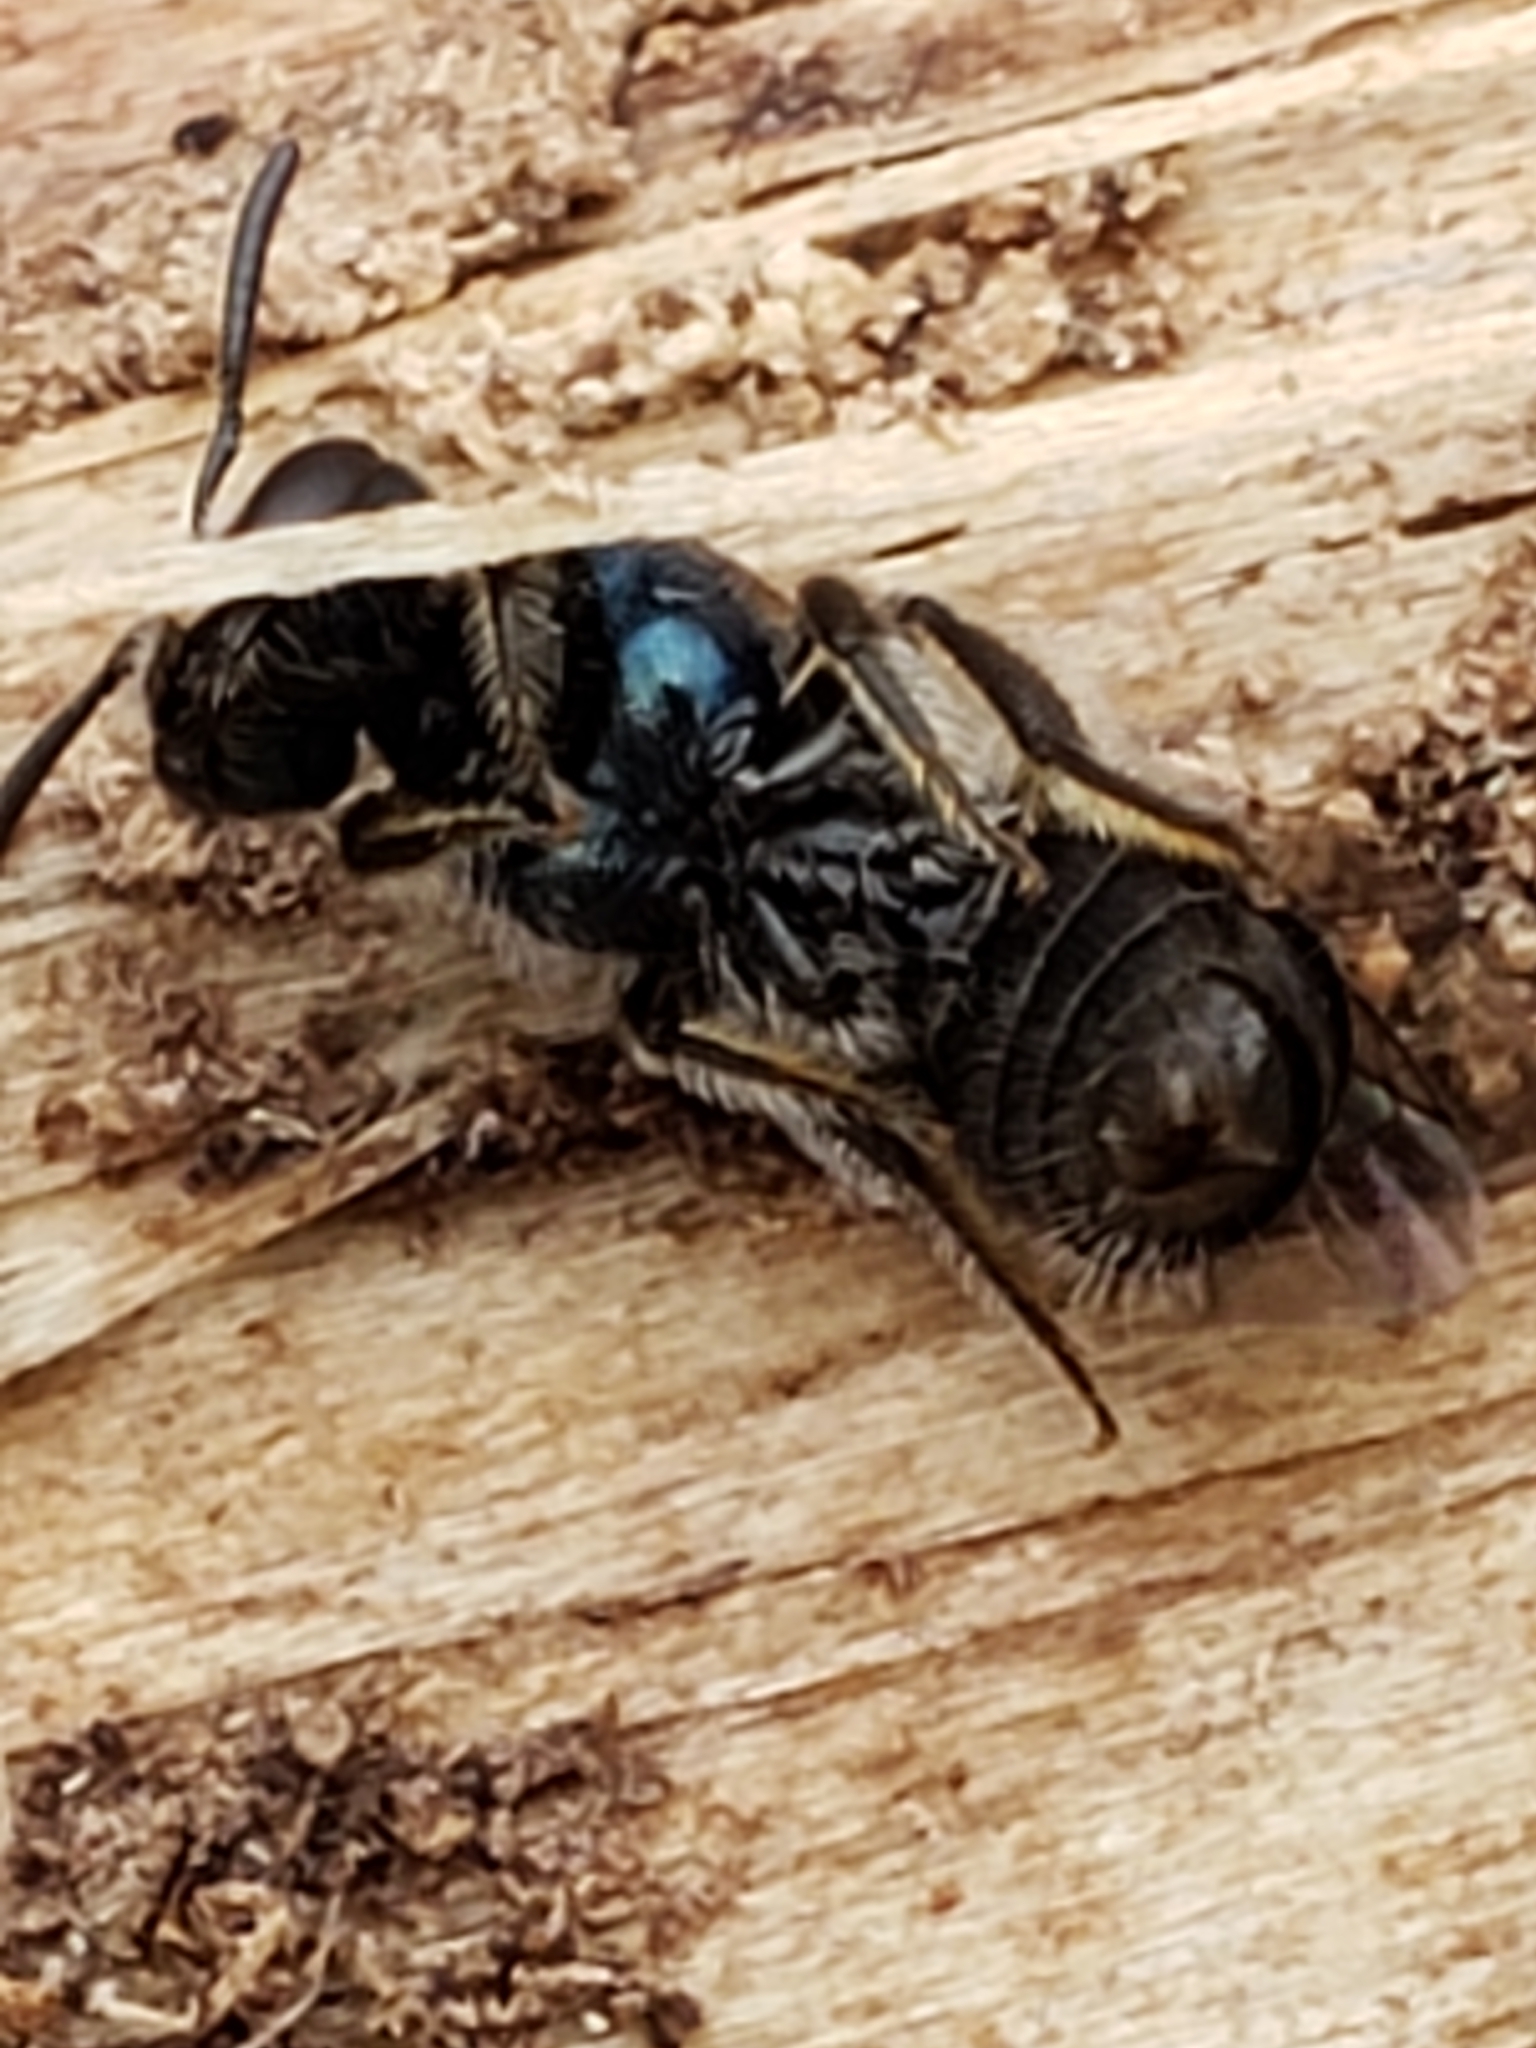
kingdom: Animalia
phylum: Arthropoda
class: Insecta
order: Hymenoptera
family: Halictidae
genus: Lasioglossum
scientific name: Lasioglossum coeruleum
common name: Deep-blue sweat bee
